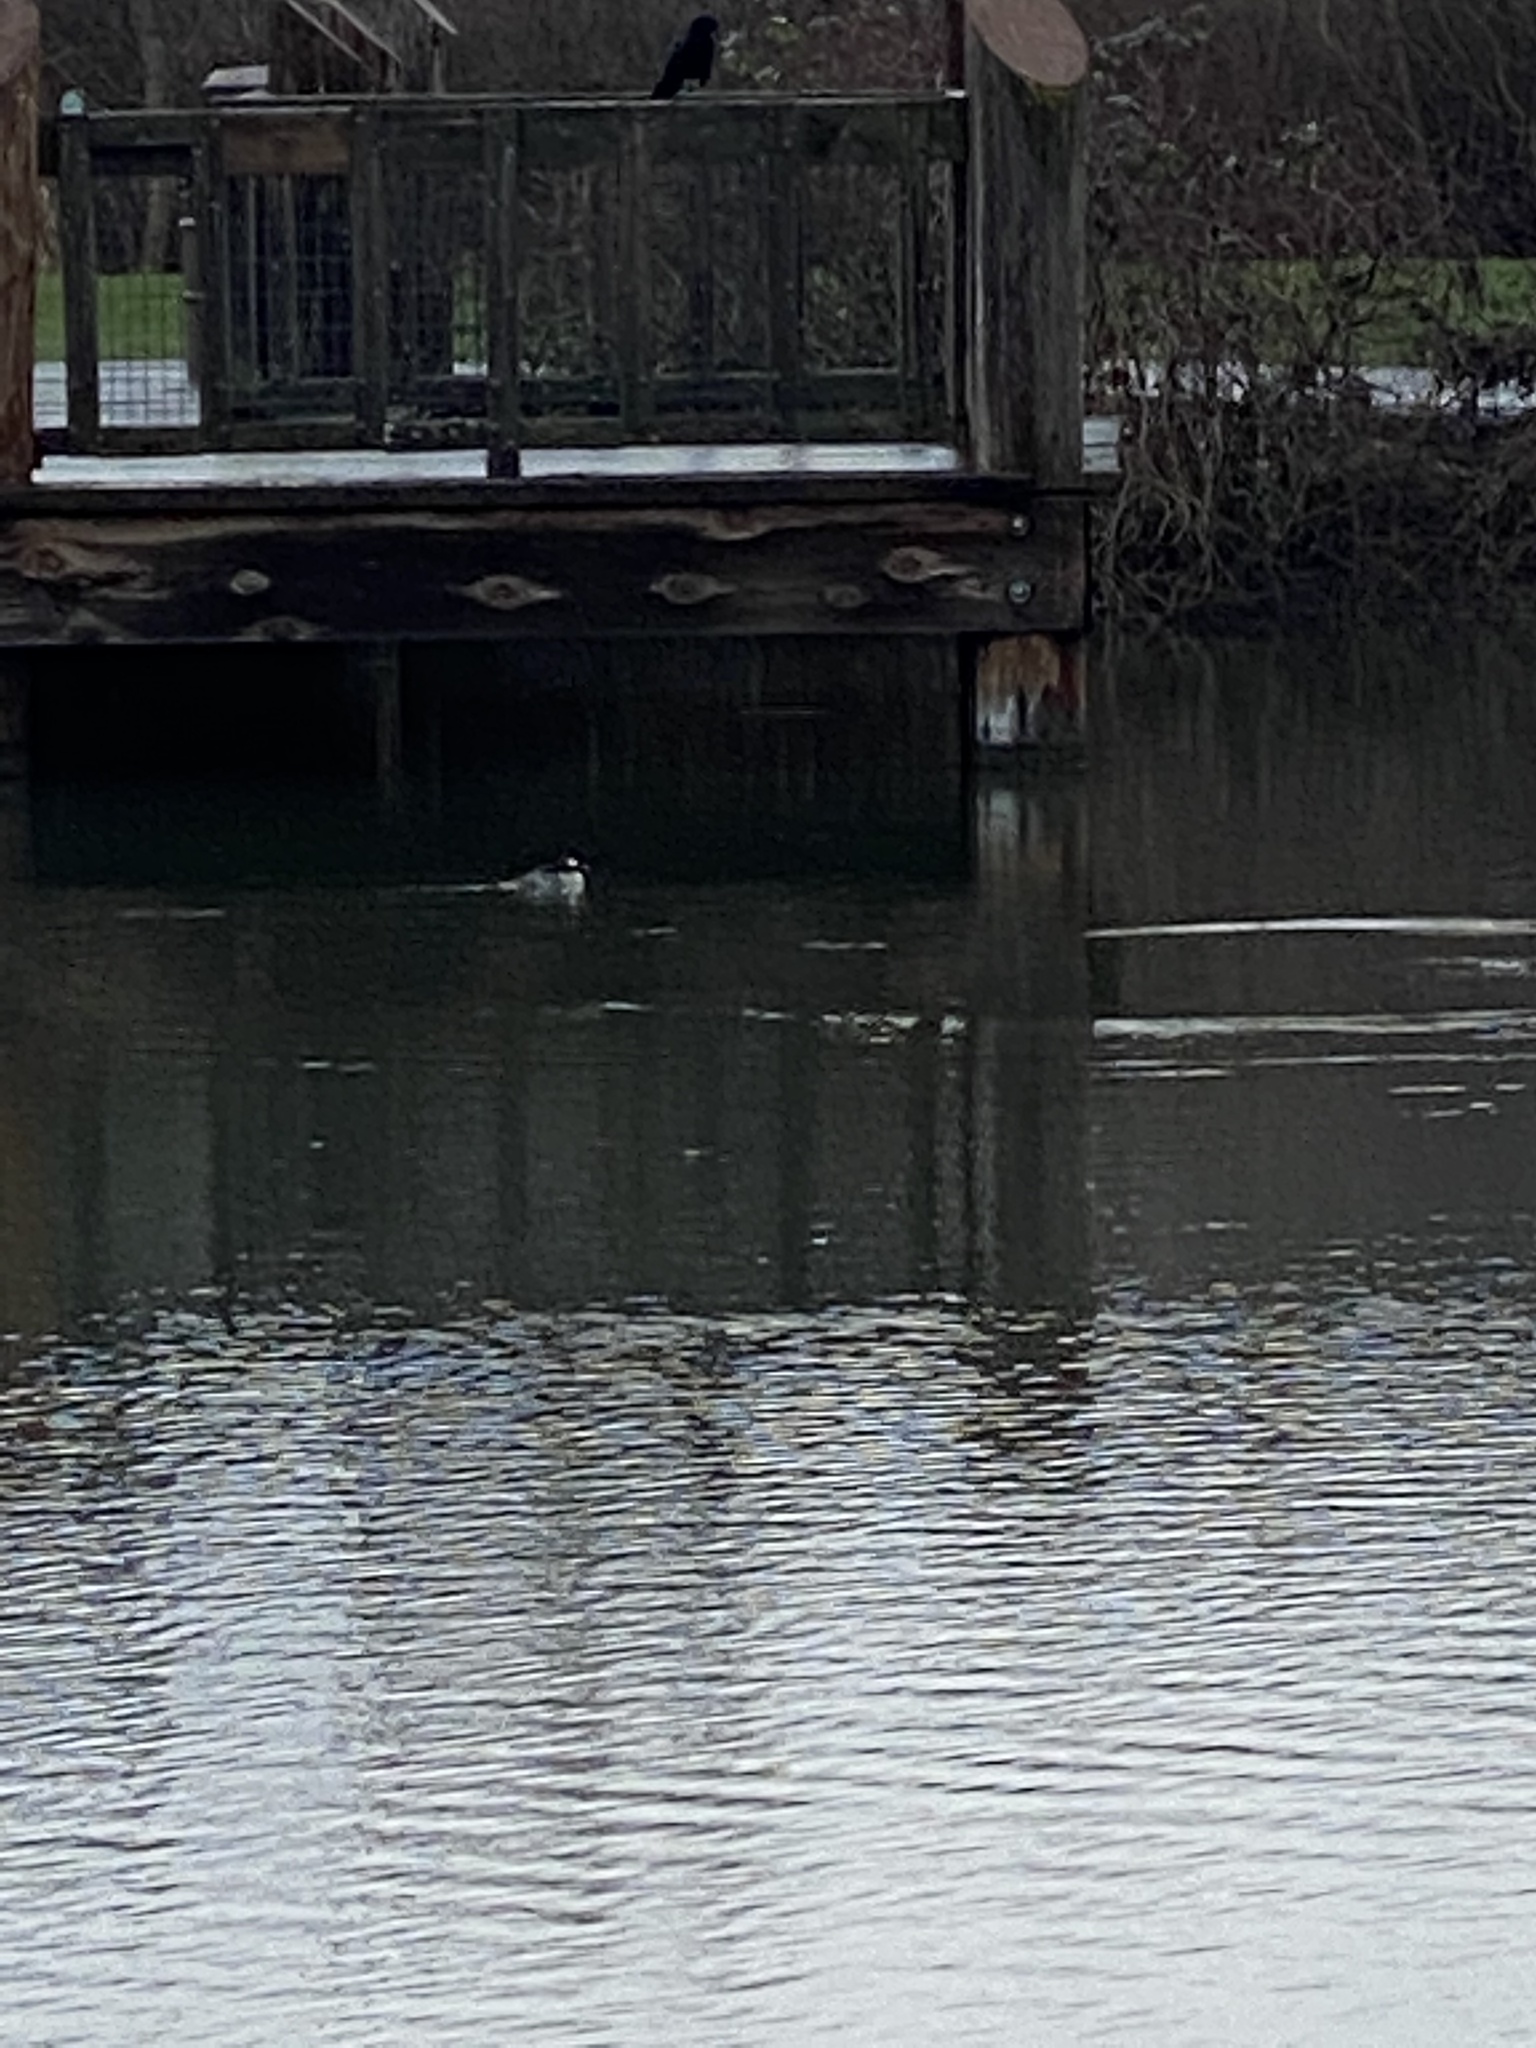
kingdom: Animalia
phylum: Chordata
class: Aves
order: Anseriformes
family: Anatidae
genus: Bucephala
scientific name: Bucephala albeola
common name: Bufflehead
